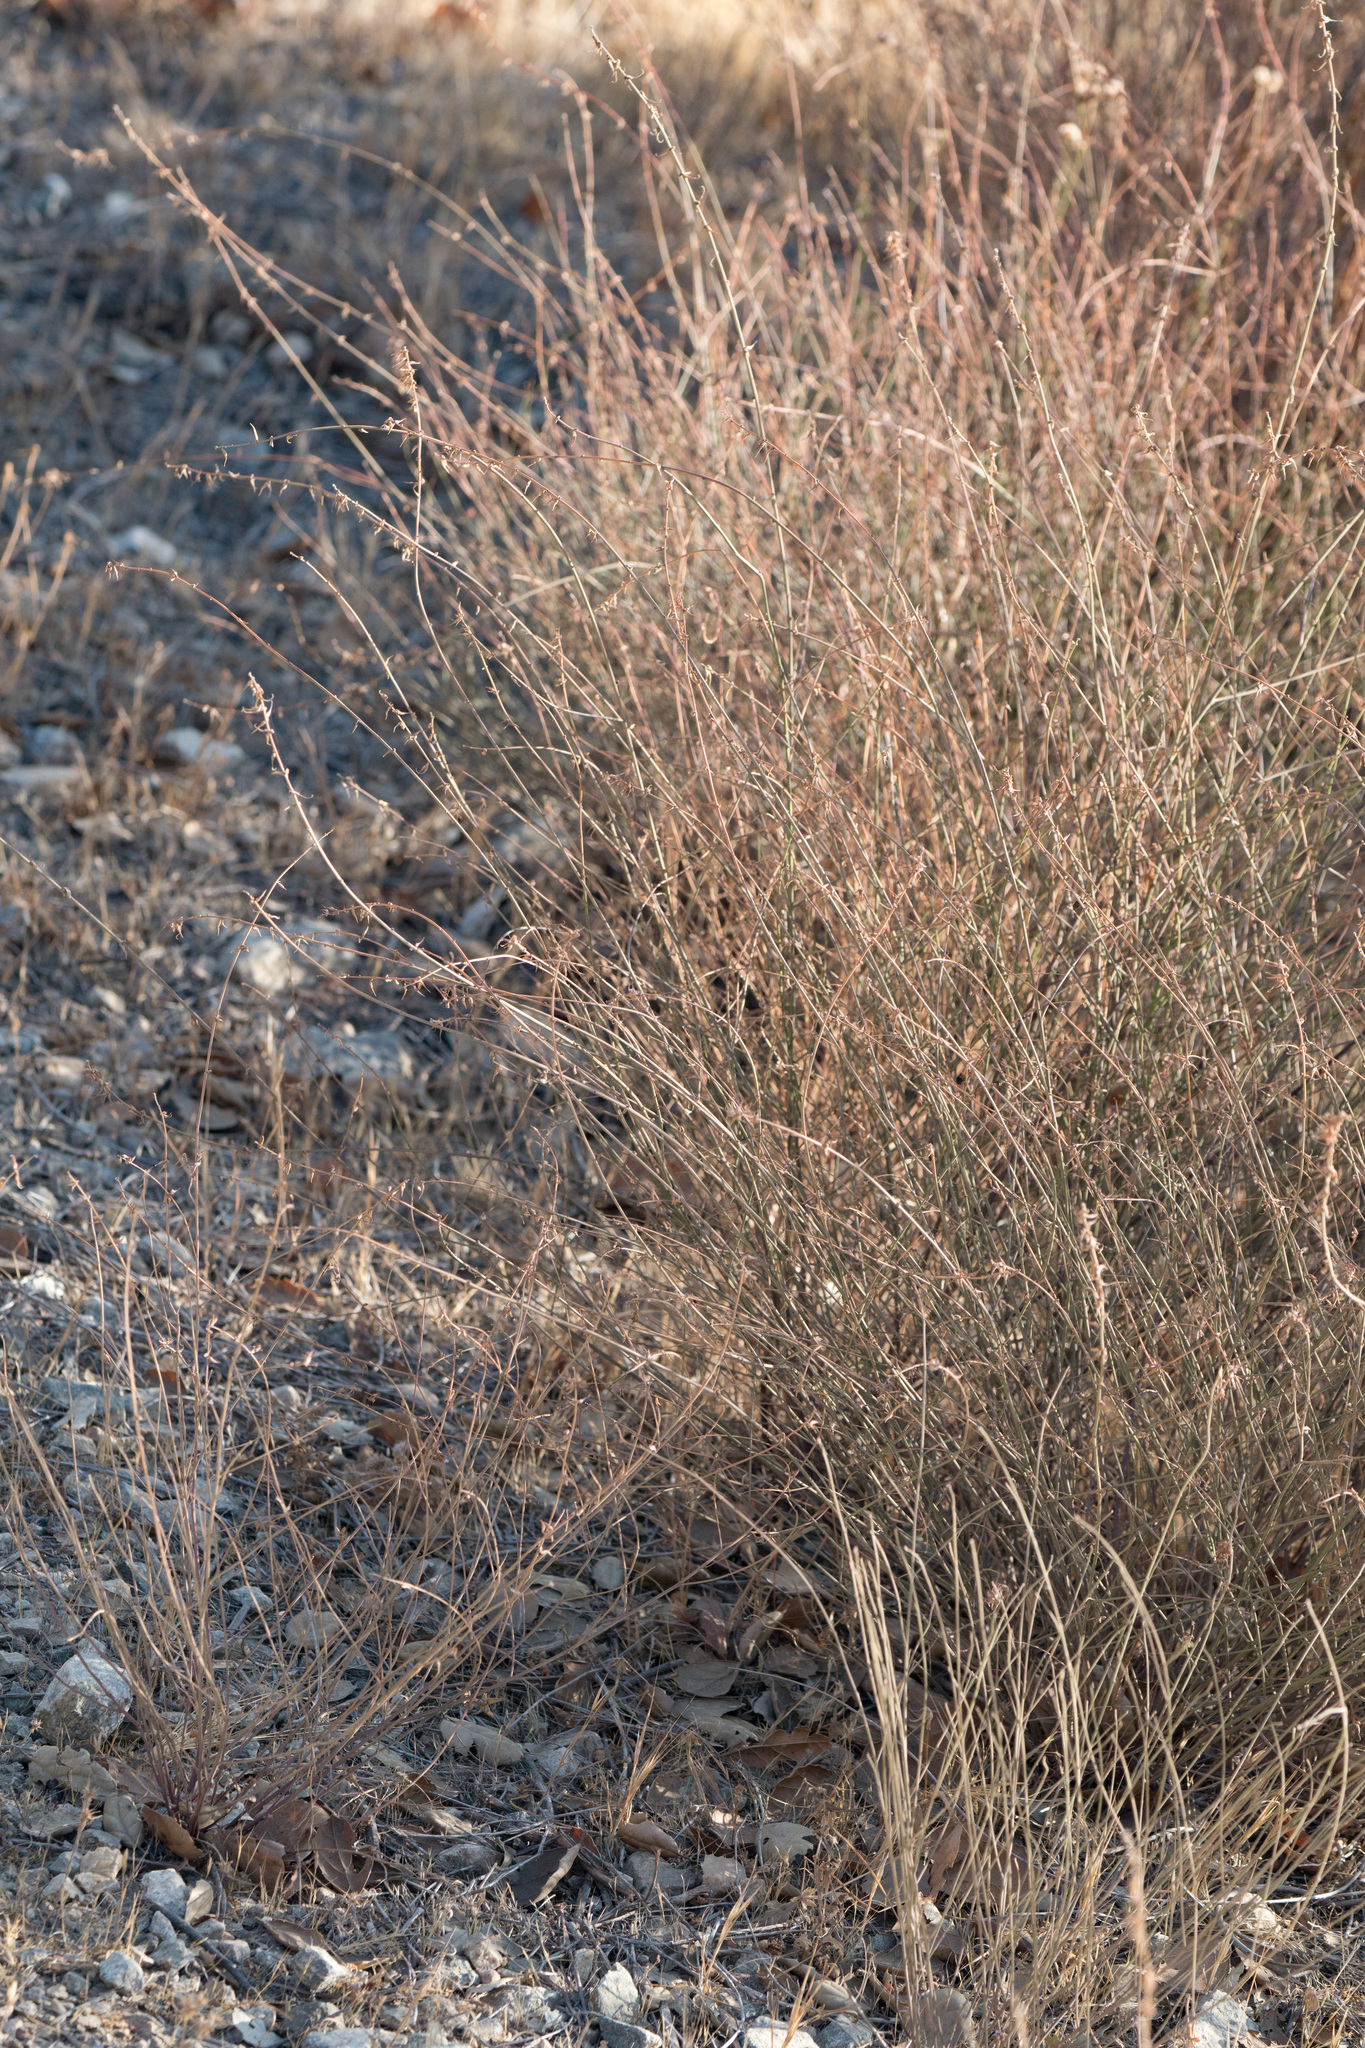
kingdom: Plantae
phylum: Tracheophyta
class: Magnoliopsida
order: Fabales
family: Fabaceae
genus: Acmispon
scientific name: Acmispon glaber
